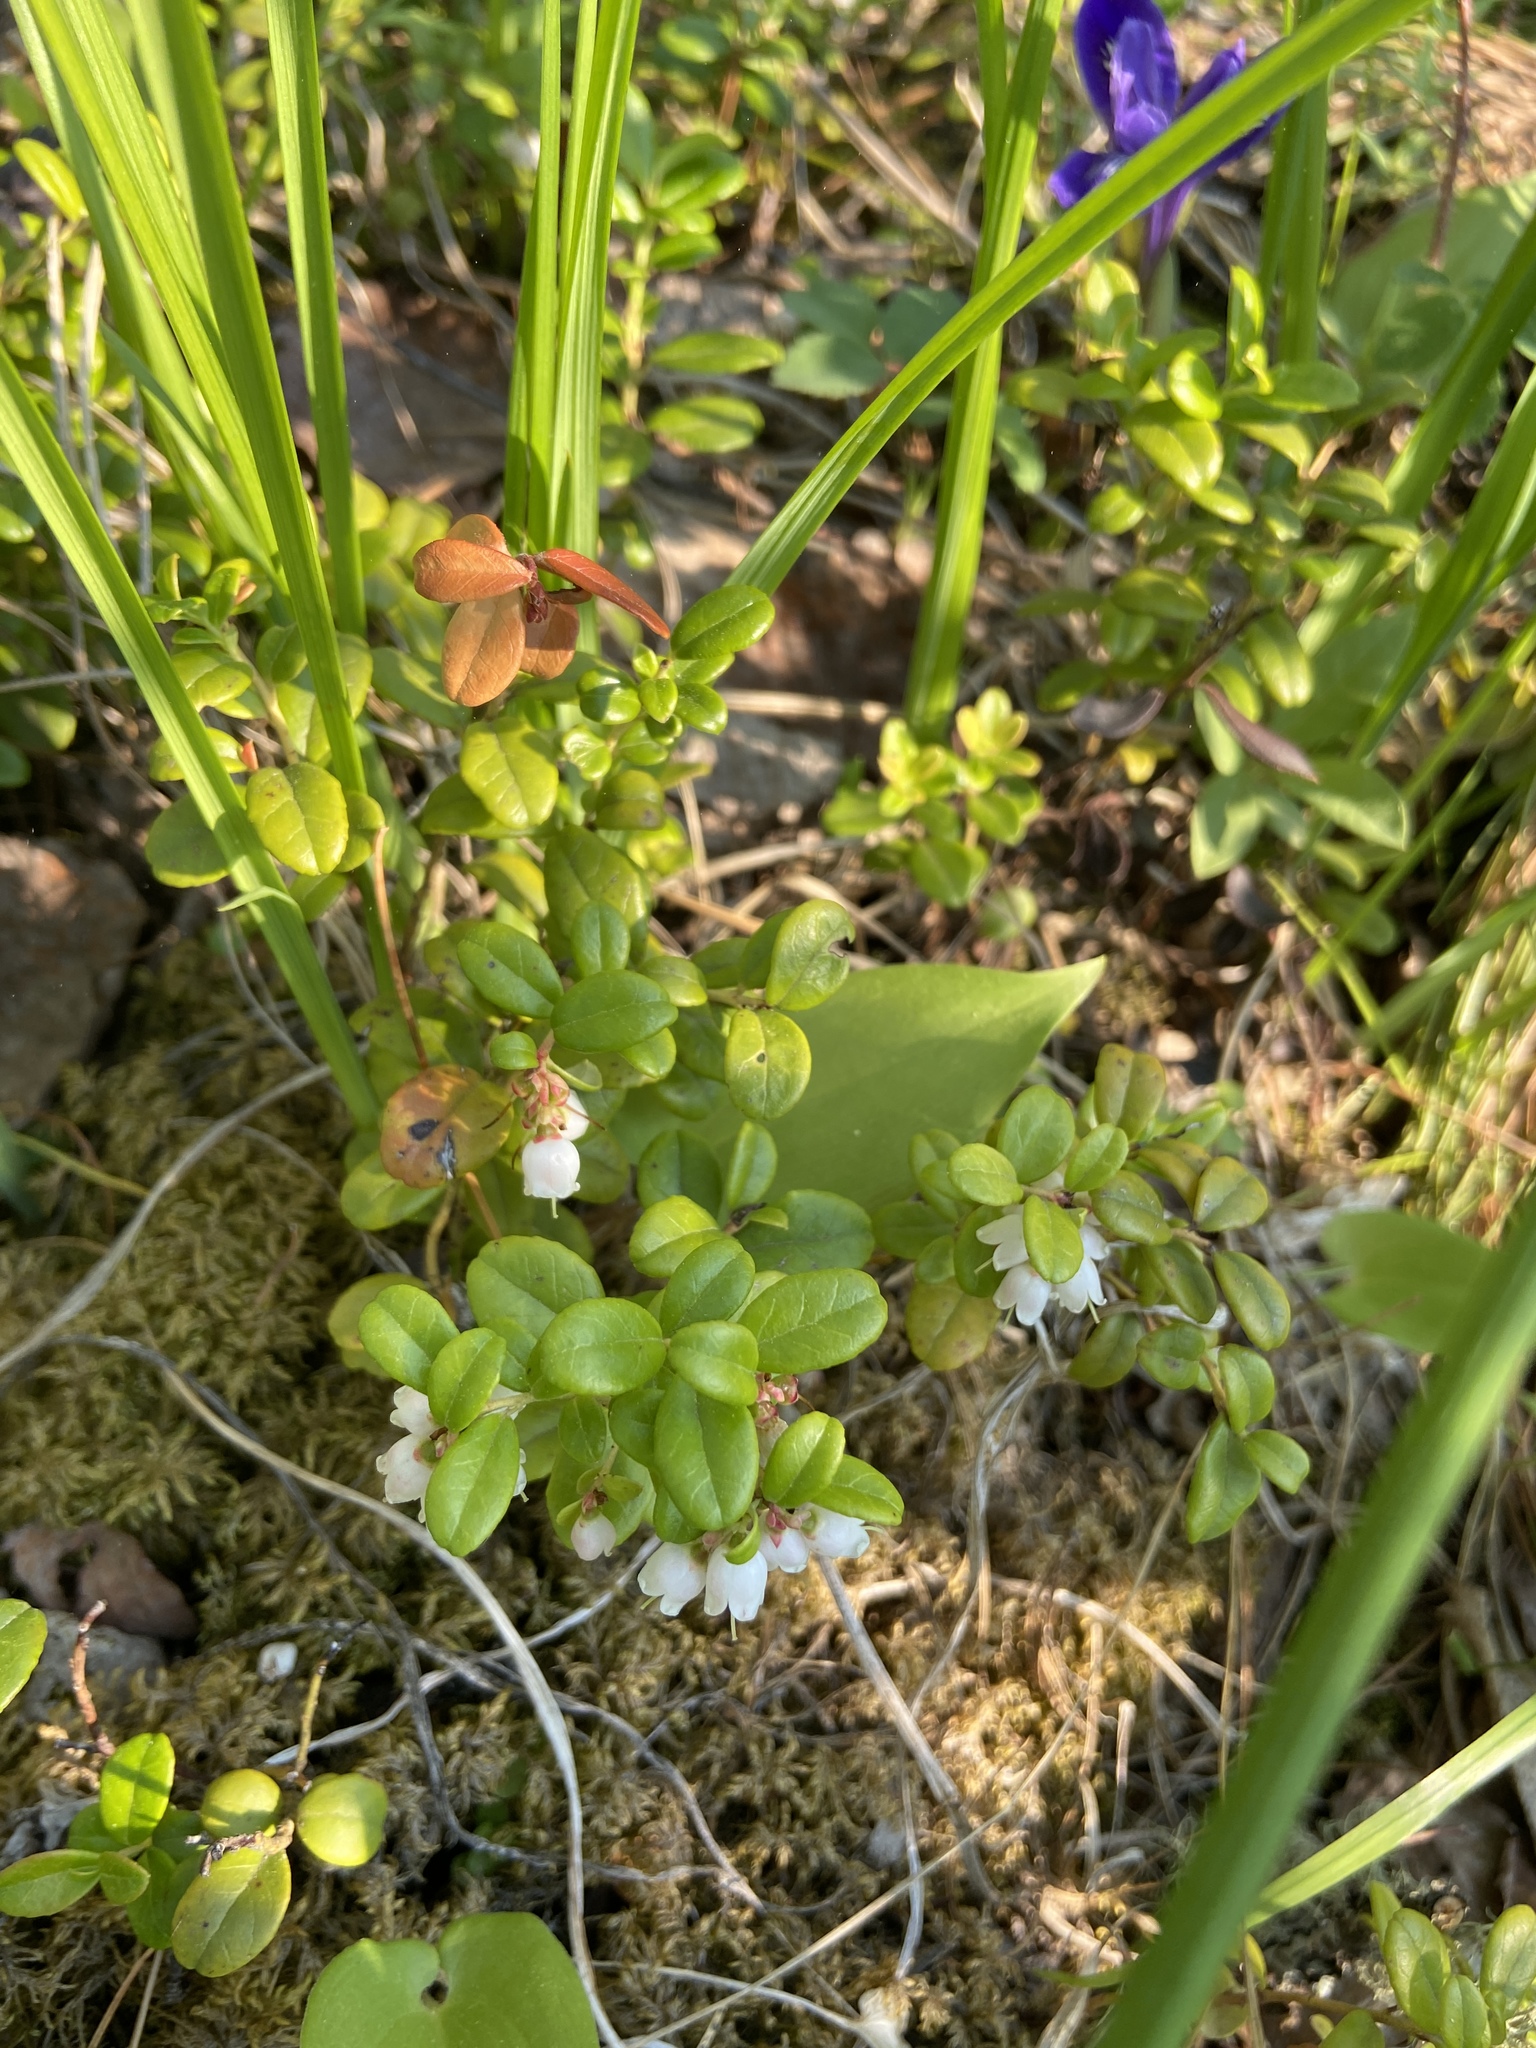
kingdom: Plantae
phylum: Tracheophyta
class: Magnoliopsida
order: Ericales
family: Ericaceae
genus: Vaccinium
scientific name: Vaccinium vitis-idaea
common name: Cowberry
